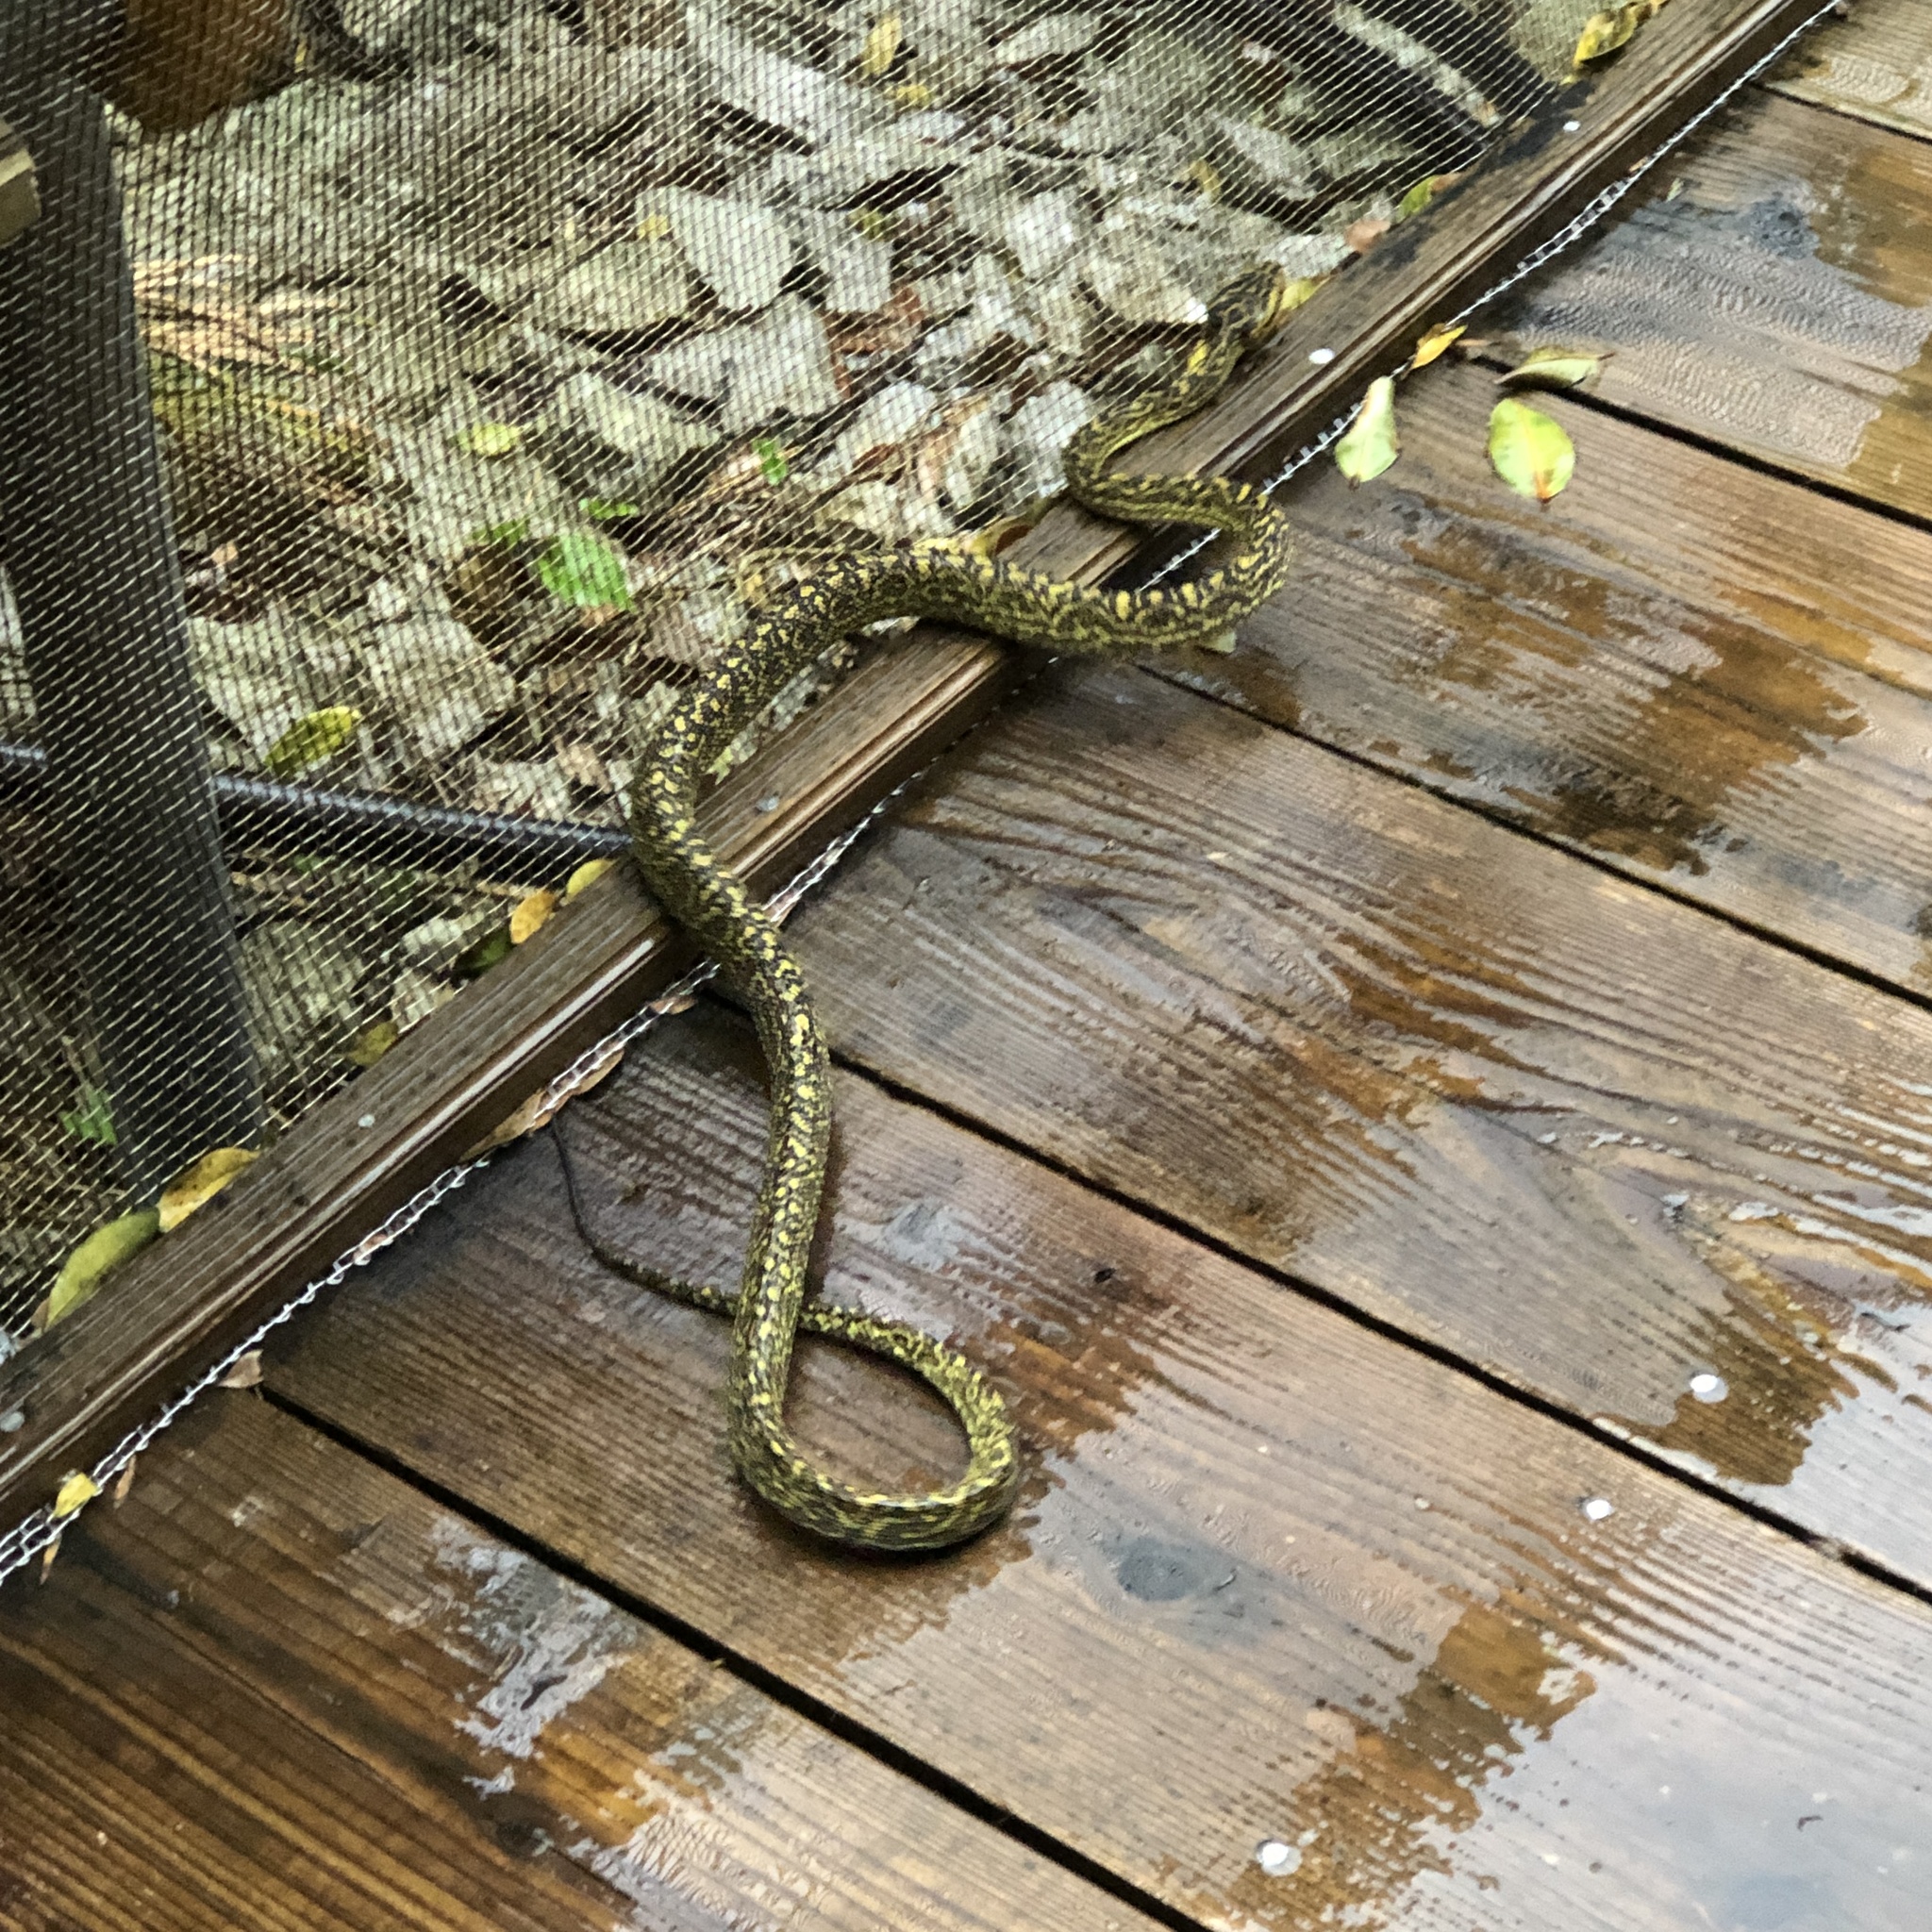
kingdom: Animalia
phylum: Chordata
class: Squamata
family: Viperidae
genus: Protobothrops
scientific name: Protobothrops flavoviridis
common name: Habu
